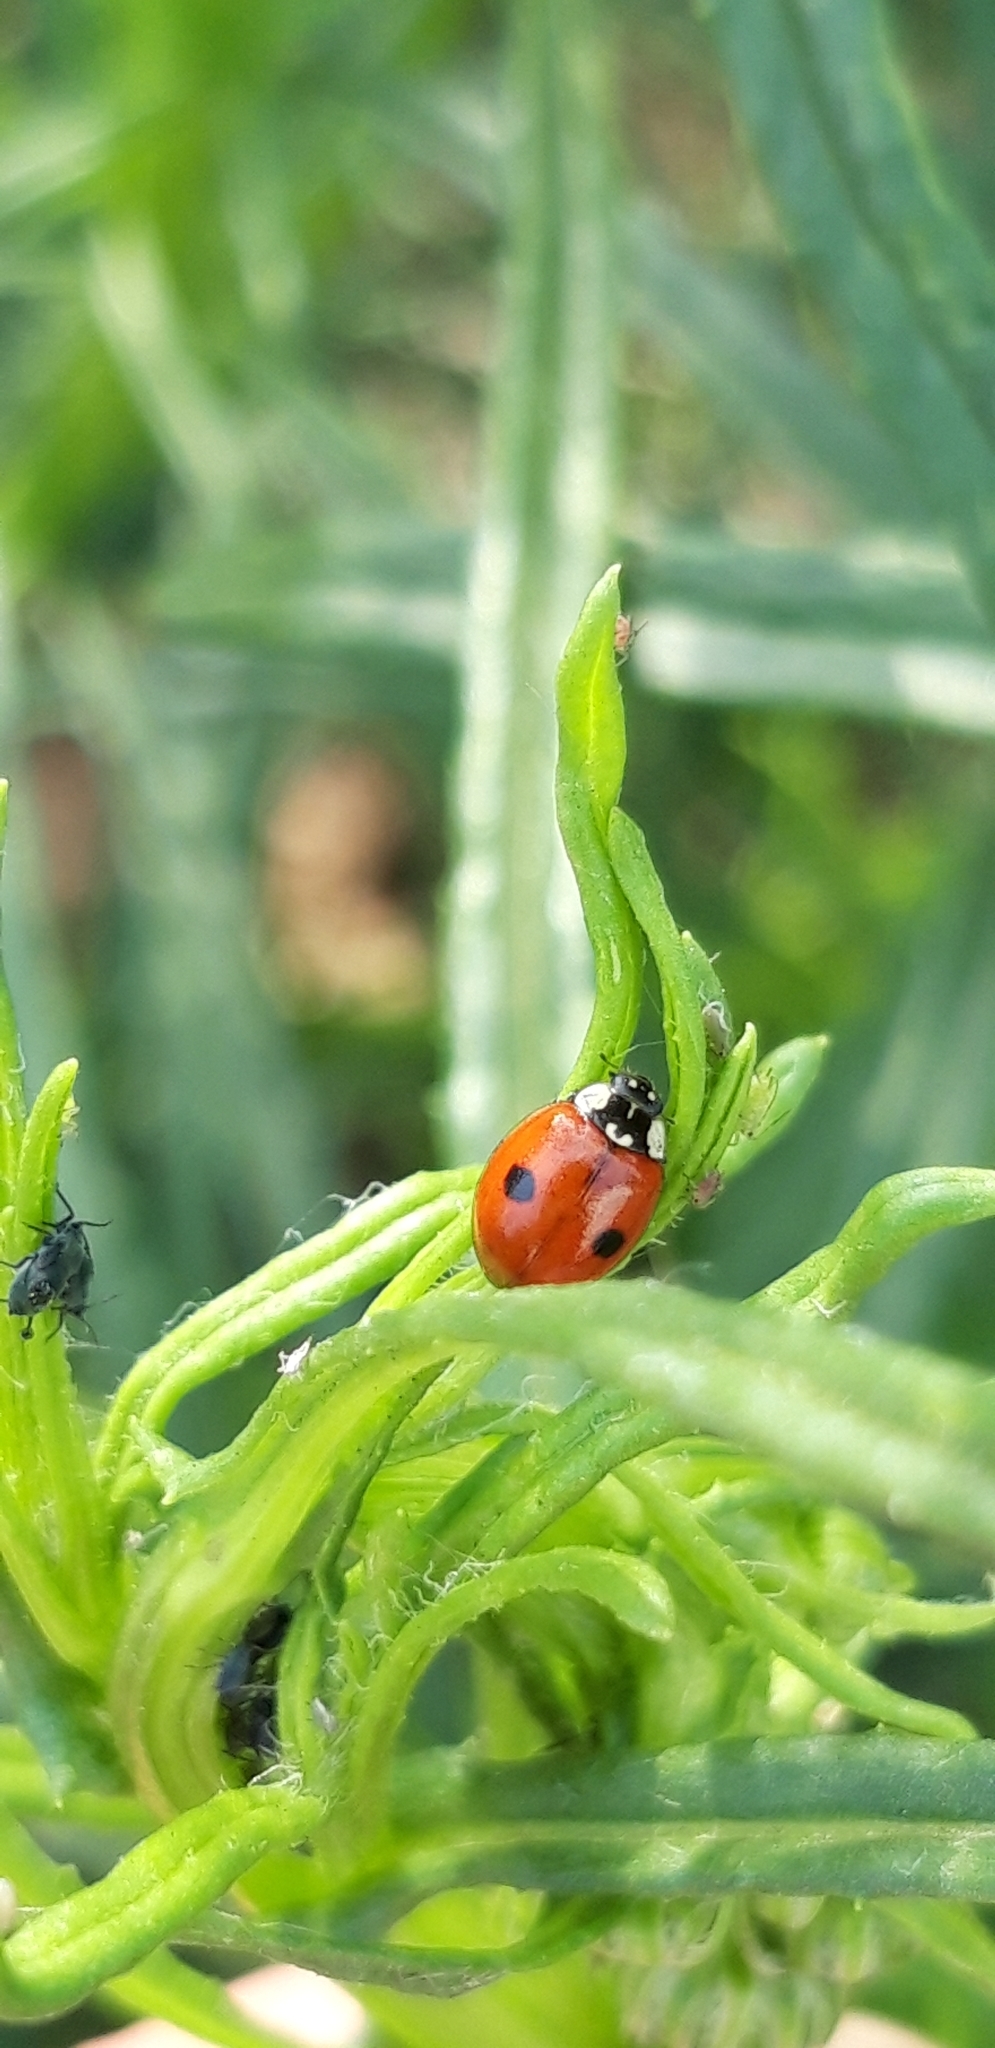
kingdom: Animalia
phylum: Arthropoda
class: Insecta
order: Coleoptera
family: Coccinellidae
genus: Adalia
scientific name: Adalia bipunctata
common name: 2-spot ladybird
